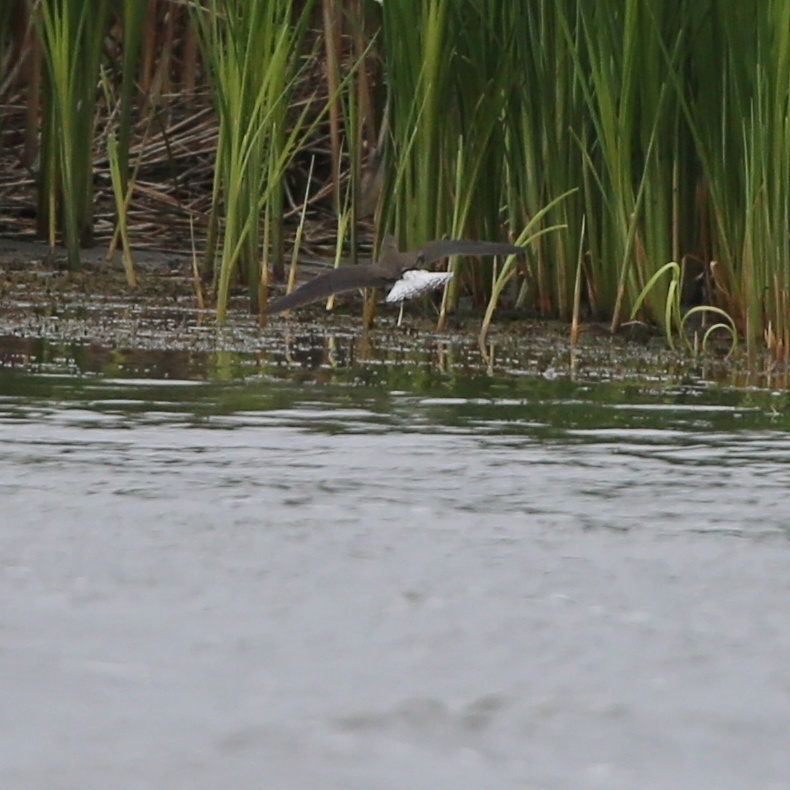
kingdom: Animalia
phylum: Chordata
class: Aves
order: Charadriiformes
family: Scolopacidae
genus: Tringa
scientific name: Tringa ochropus
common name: Green sandpiper
